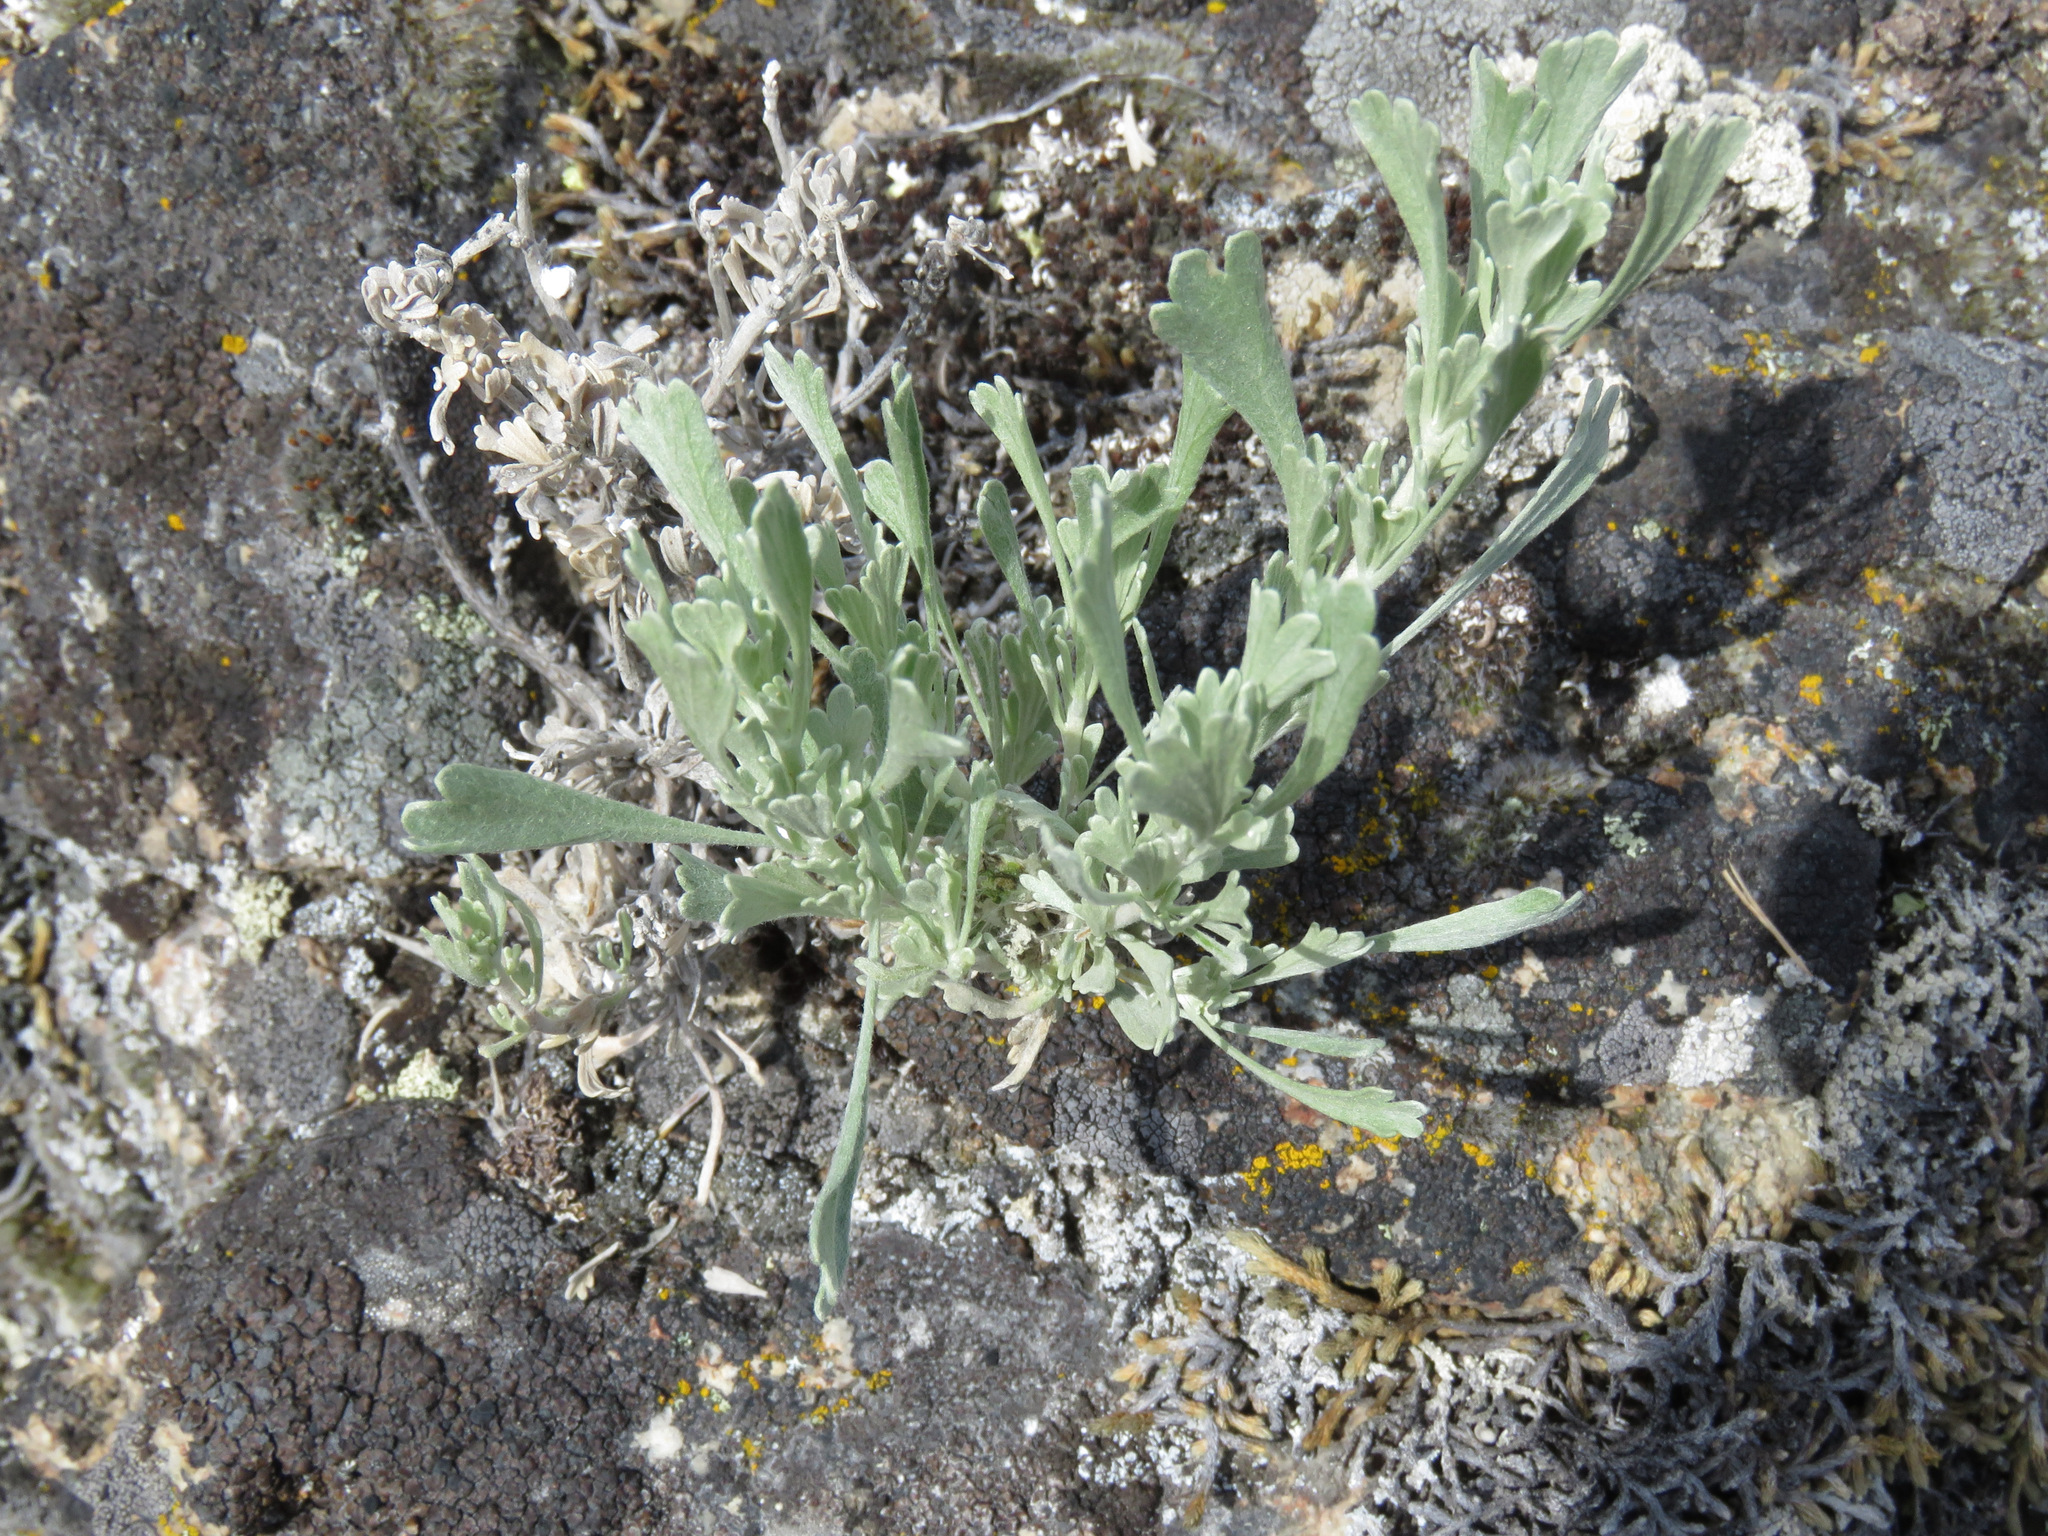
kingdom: Plantae
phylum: Tracheophyta
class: Magnoliopsida
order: Asterales
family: Asteraceae
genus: Artemisia
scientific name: Artemisia tridentata
